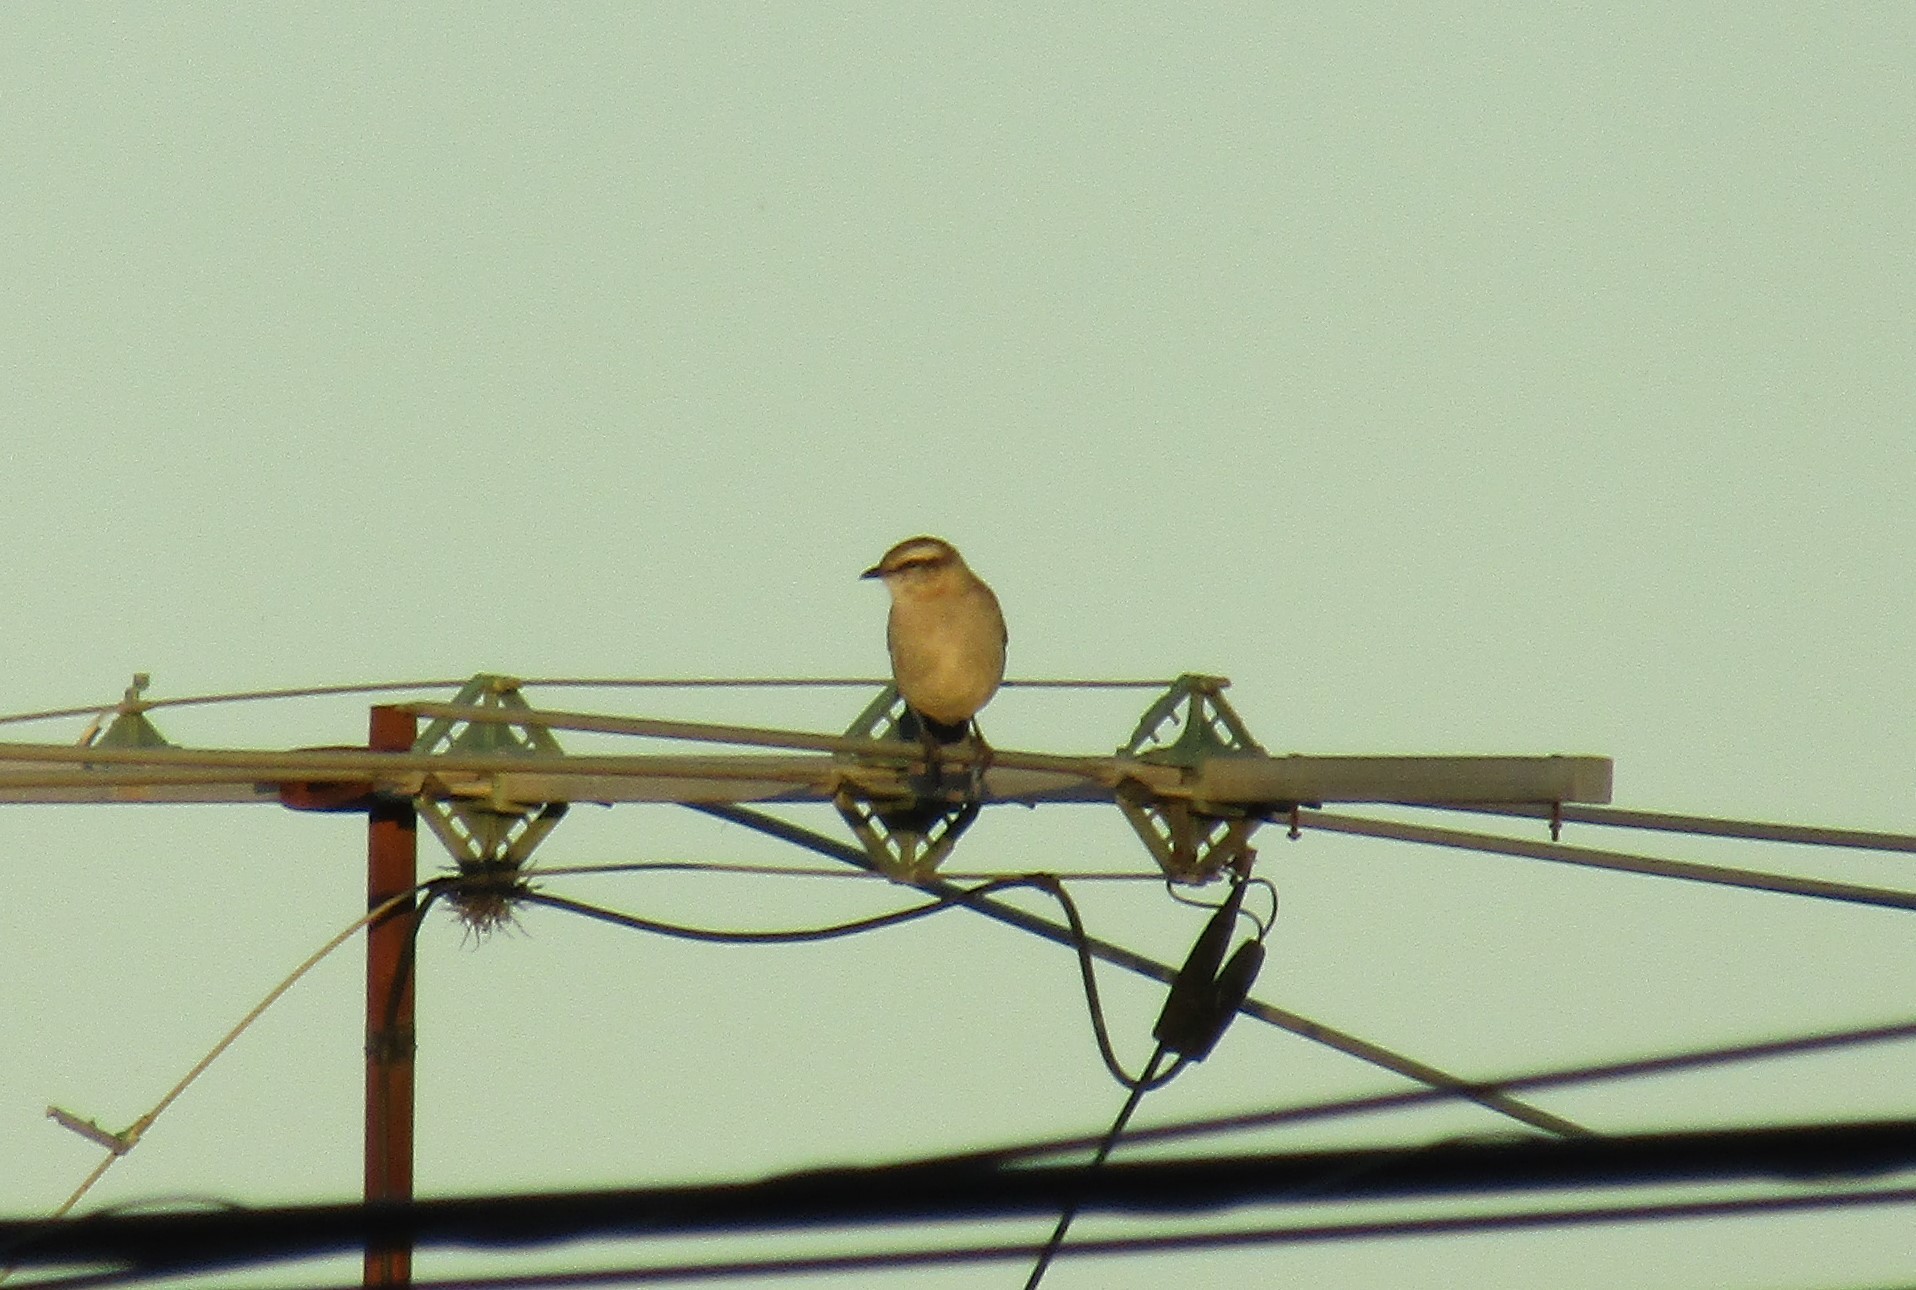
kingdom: Animalia
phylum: Chordata
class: Aves
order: Passeriformes
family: Mimidae
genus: Mimus
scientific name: Mimus saturninus
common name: Chalk-browed mockingbird
